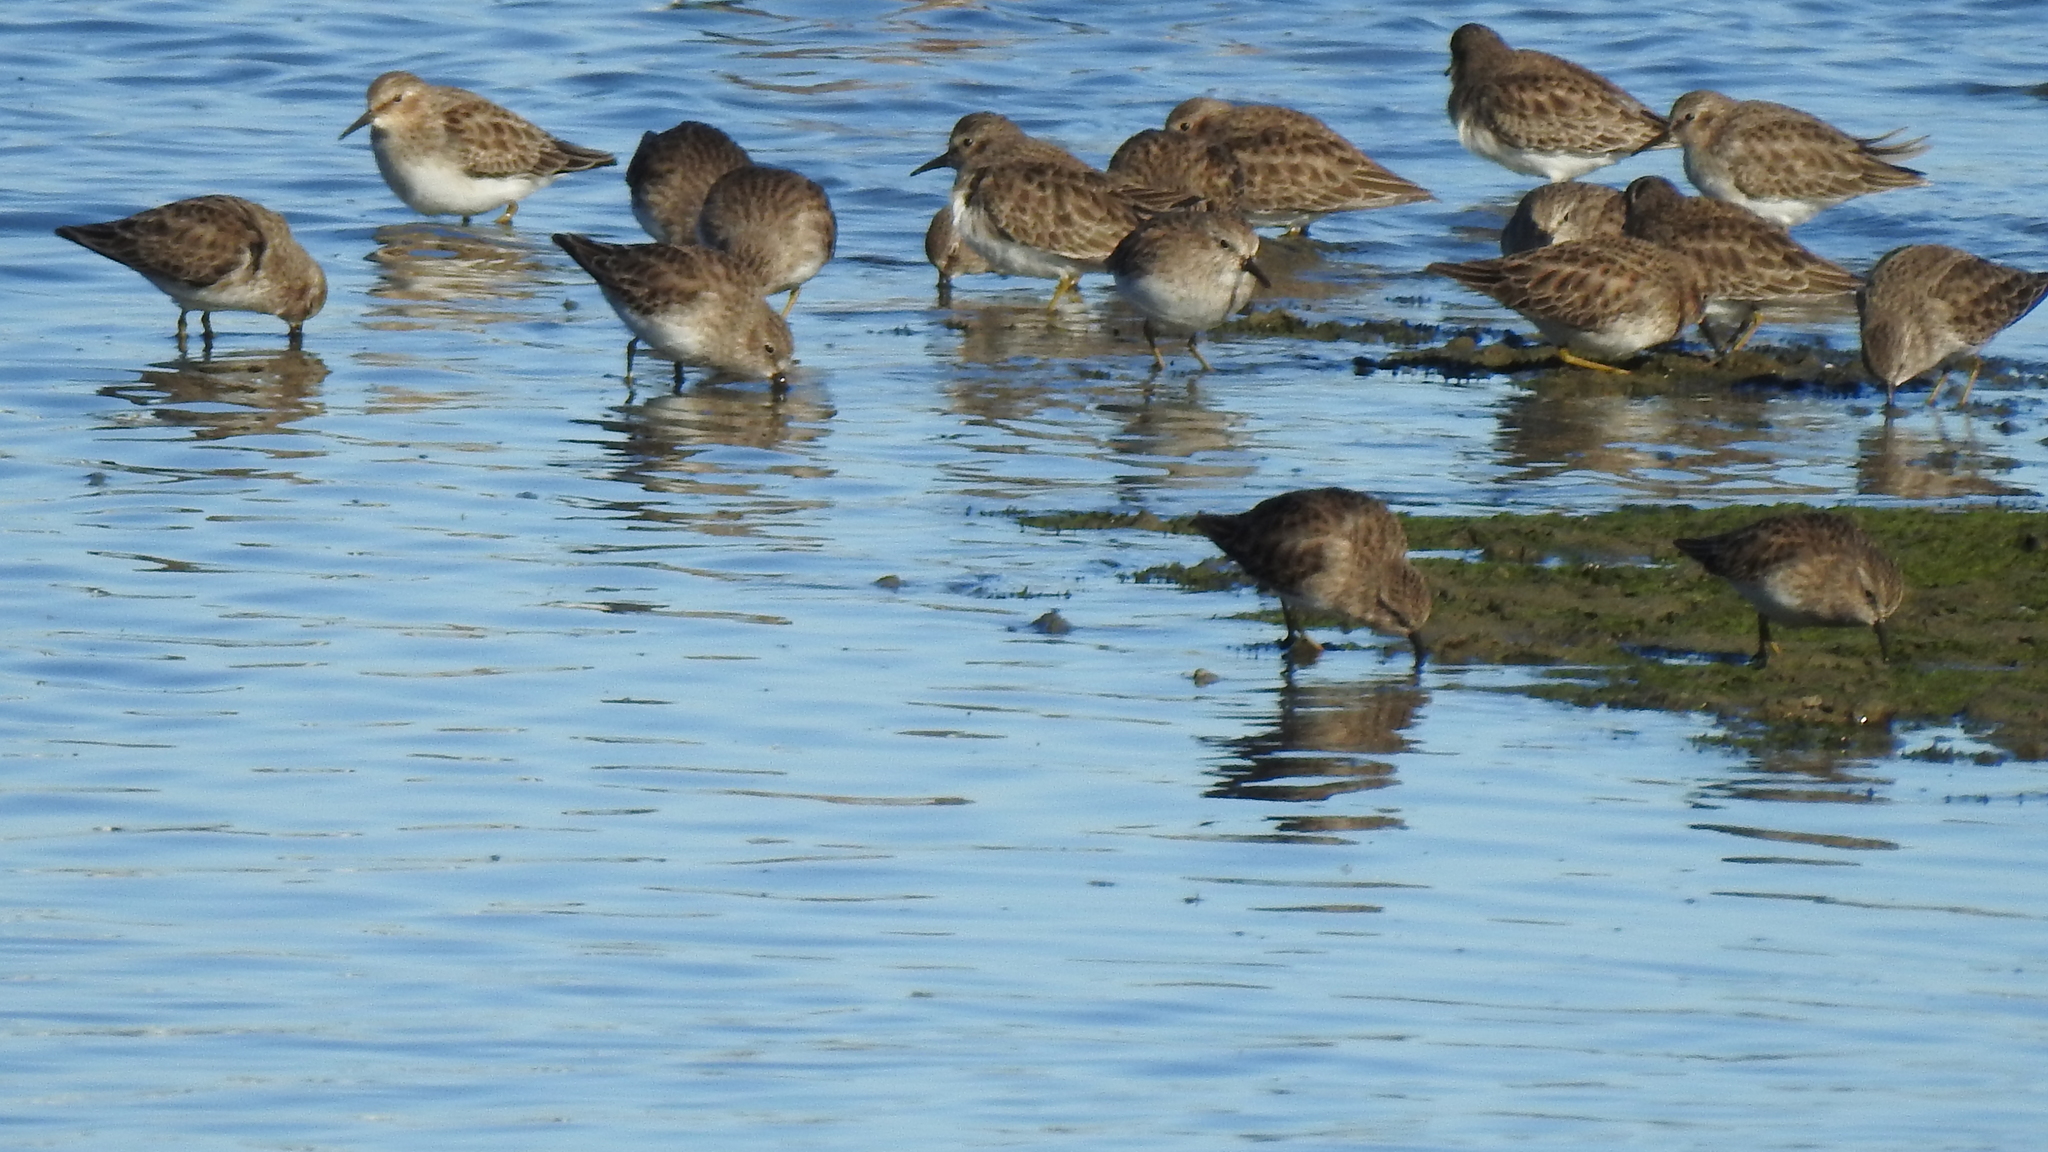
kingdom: Animalia
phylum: Chordata
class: Aves
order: Charadriiformes
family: Scolopacidae
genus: Calidris
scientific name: Calidris minutilla
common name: Least sandpiper
